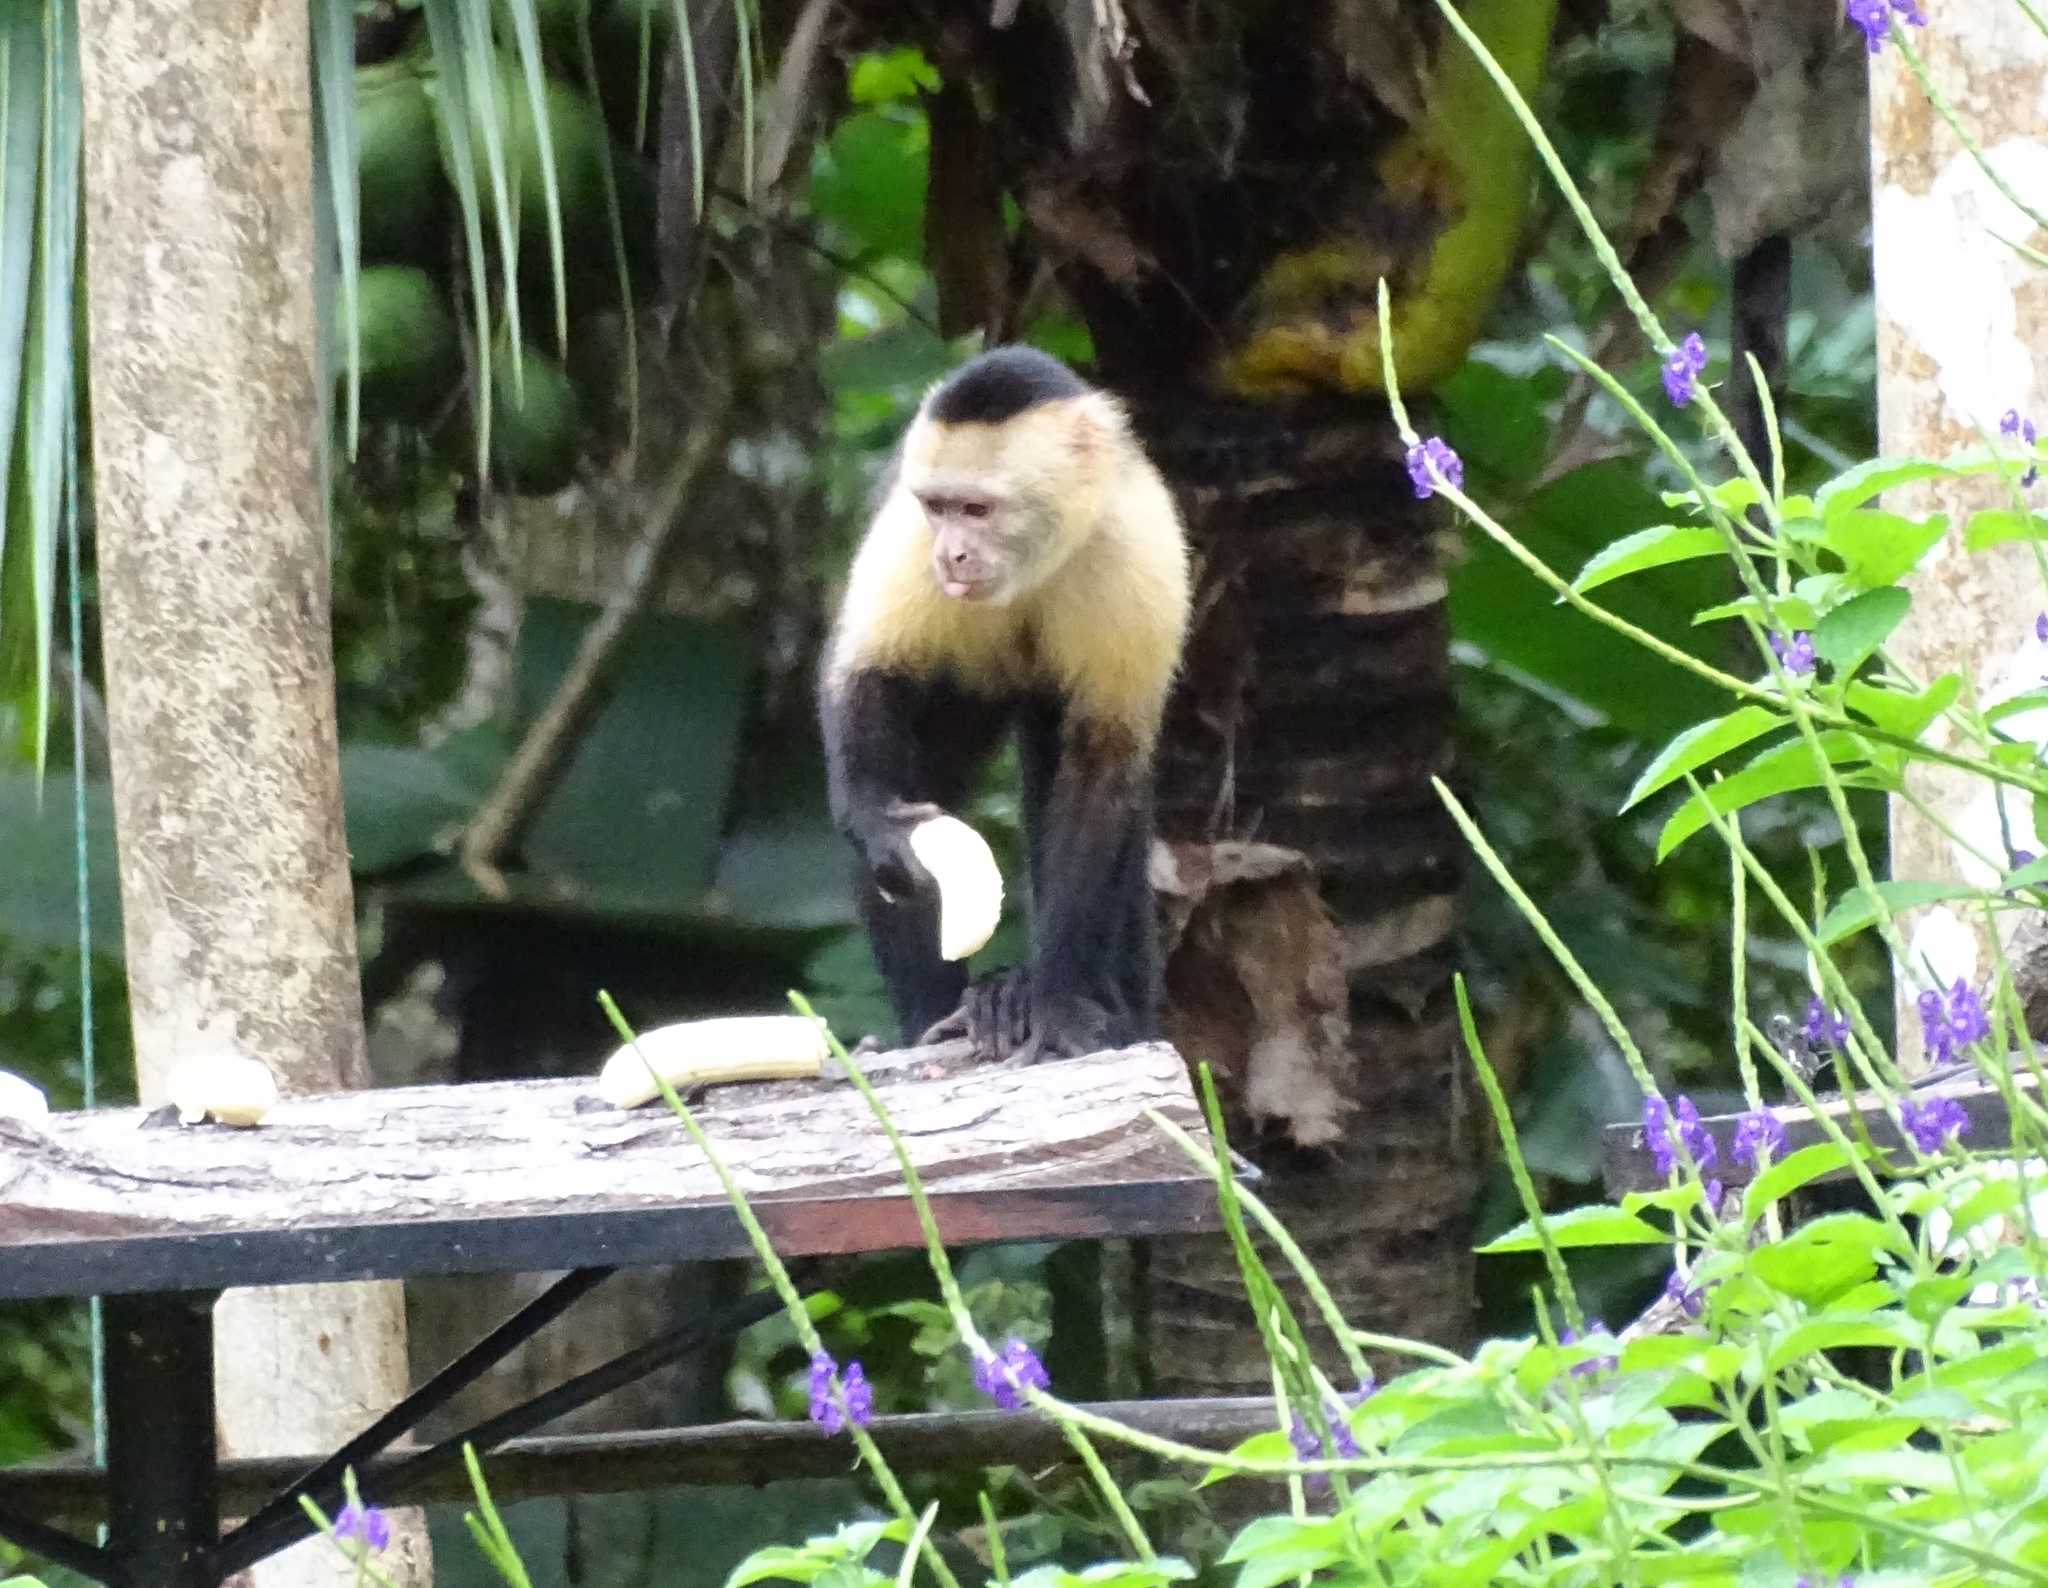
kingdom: Animalia
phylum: Chordata
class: Mammalia
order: Primates
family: Cebidae
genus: Cebus
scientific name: Cebus capucinus
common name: White-headed capuchin
